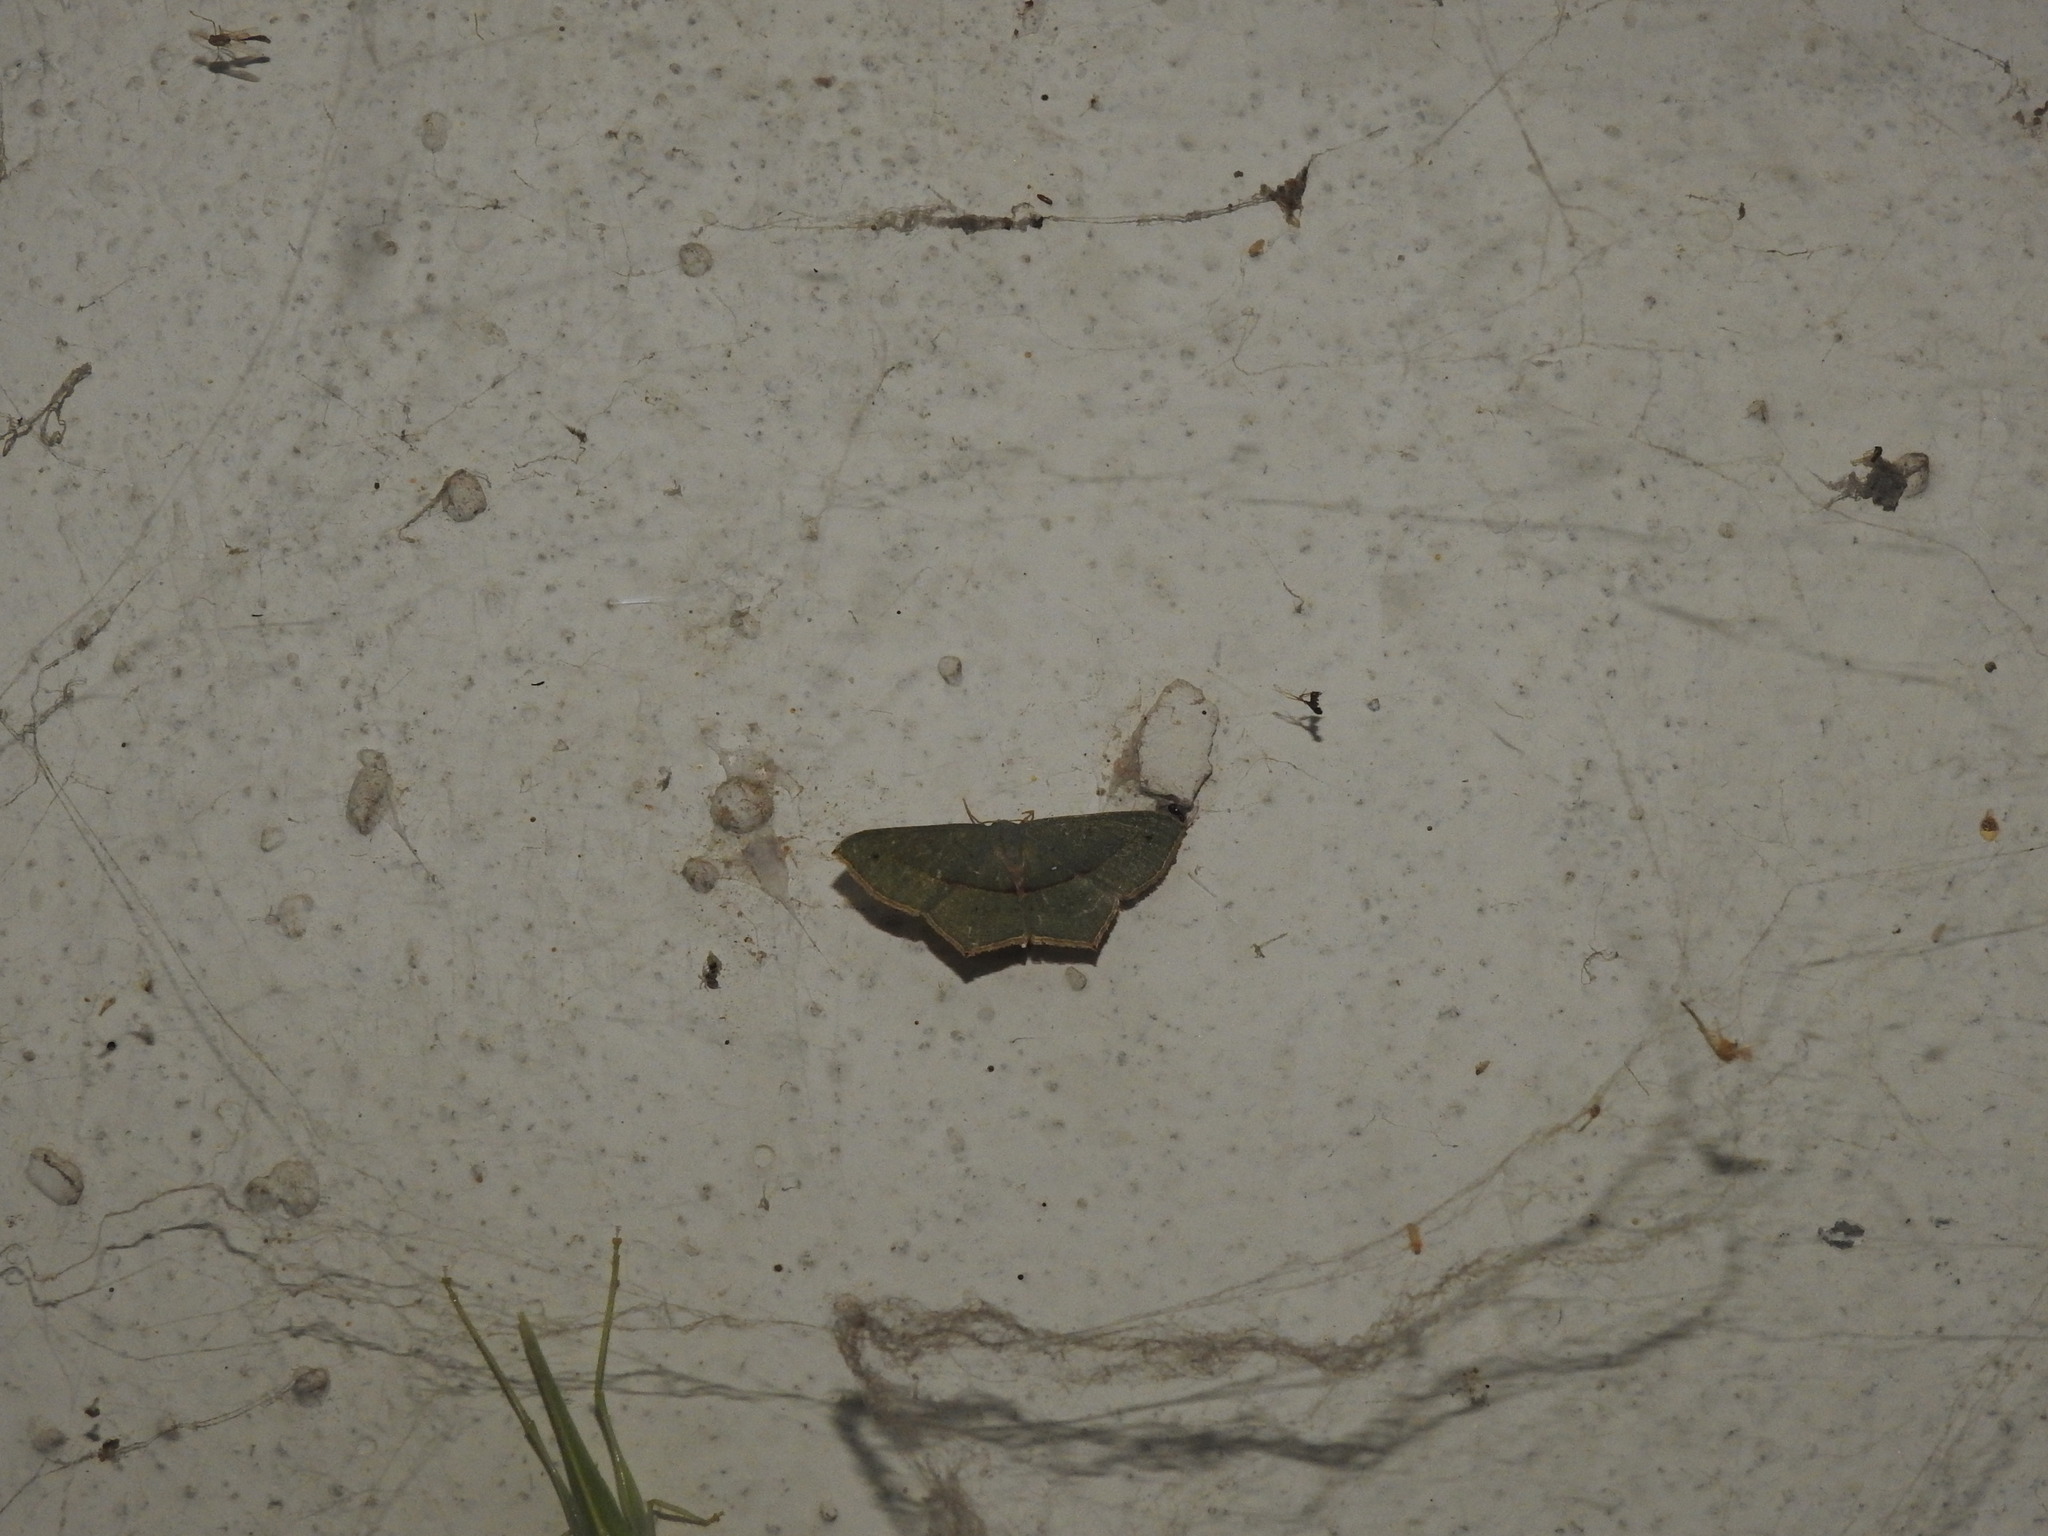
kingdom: Animalia
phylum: Arthropoda
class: Insecta
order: Lepidoptera
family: Geometridae
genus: Traminda
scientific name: Traminda mundissima
